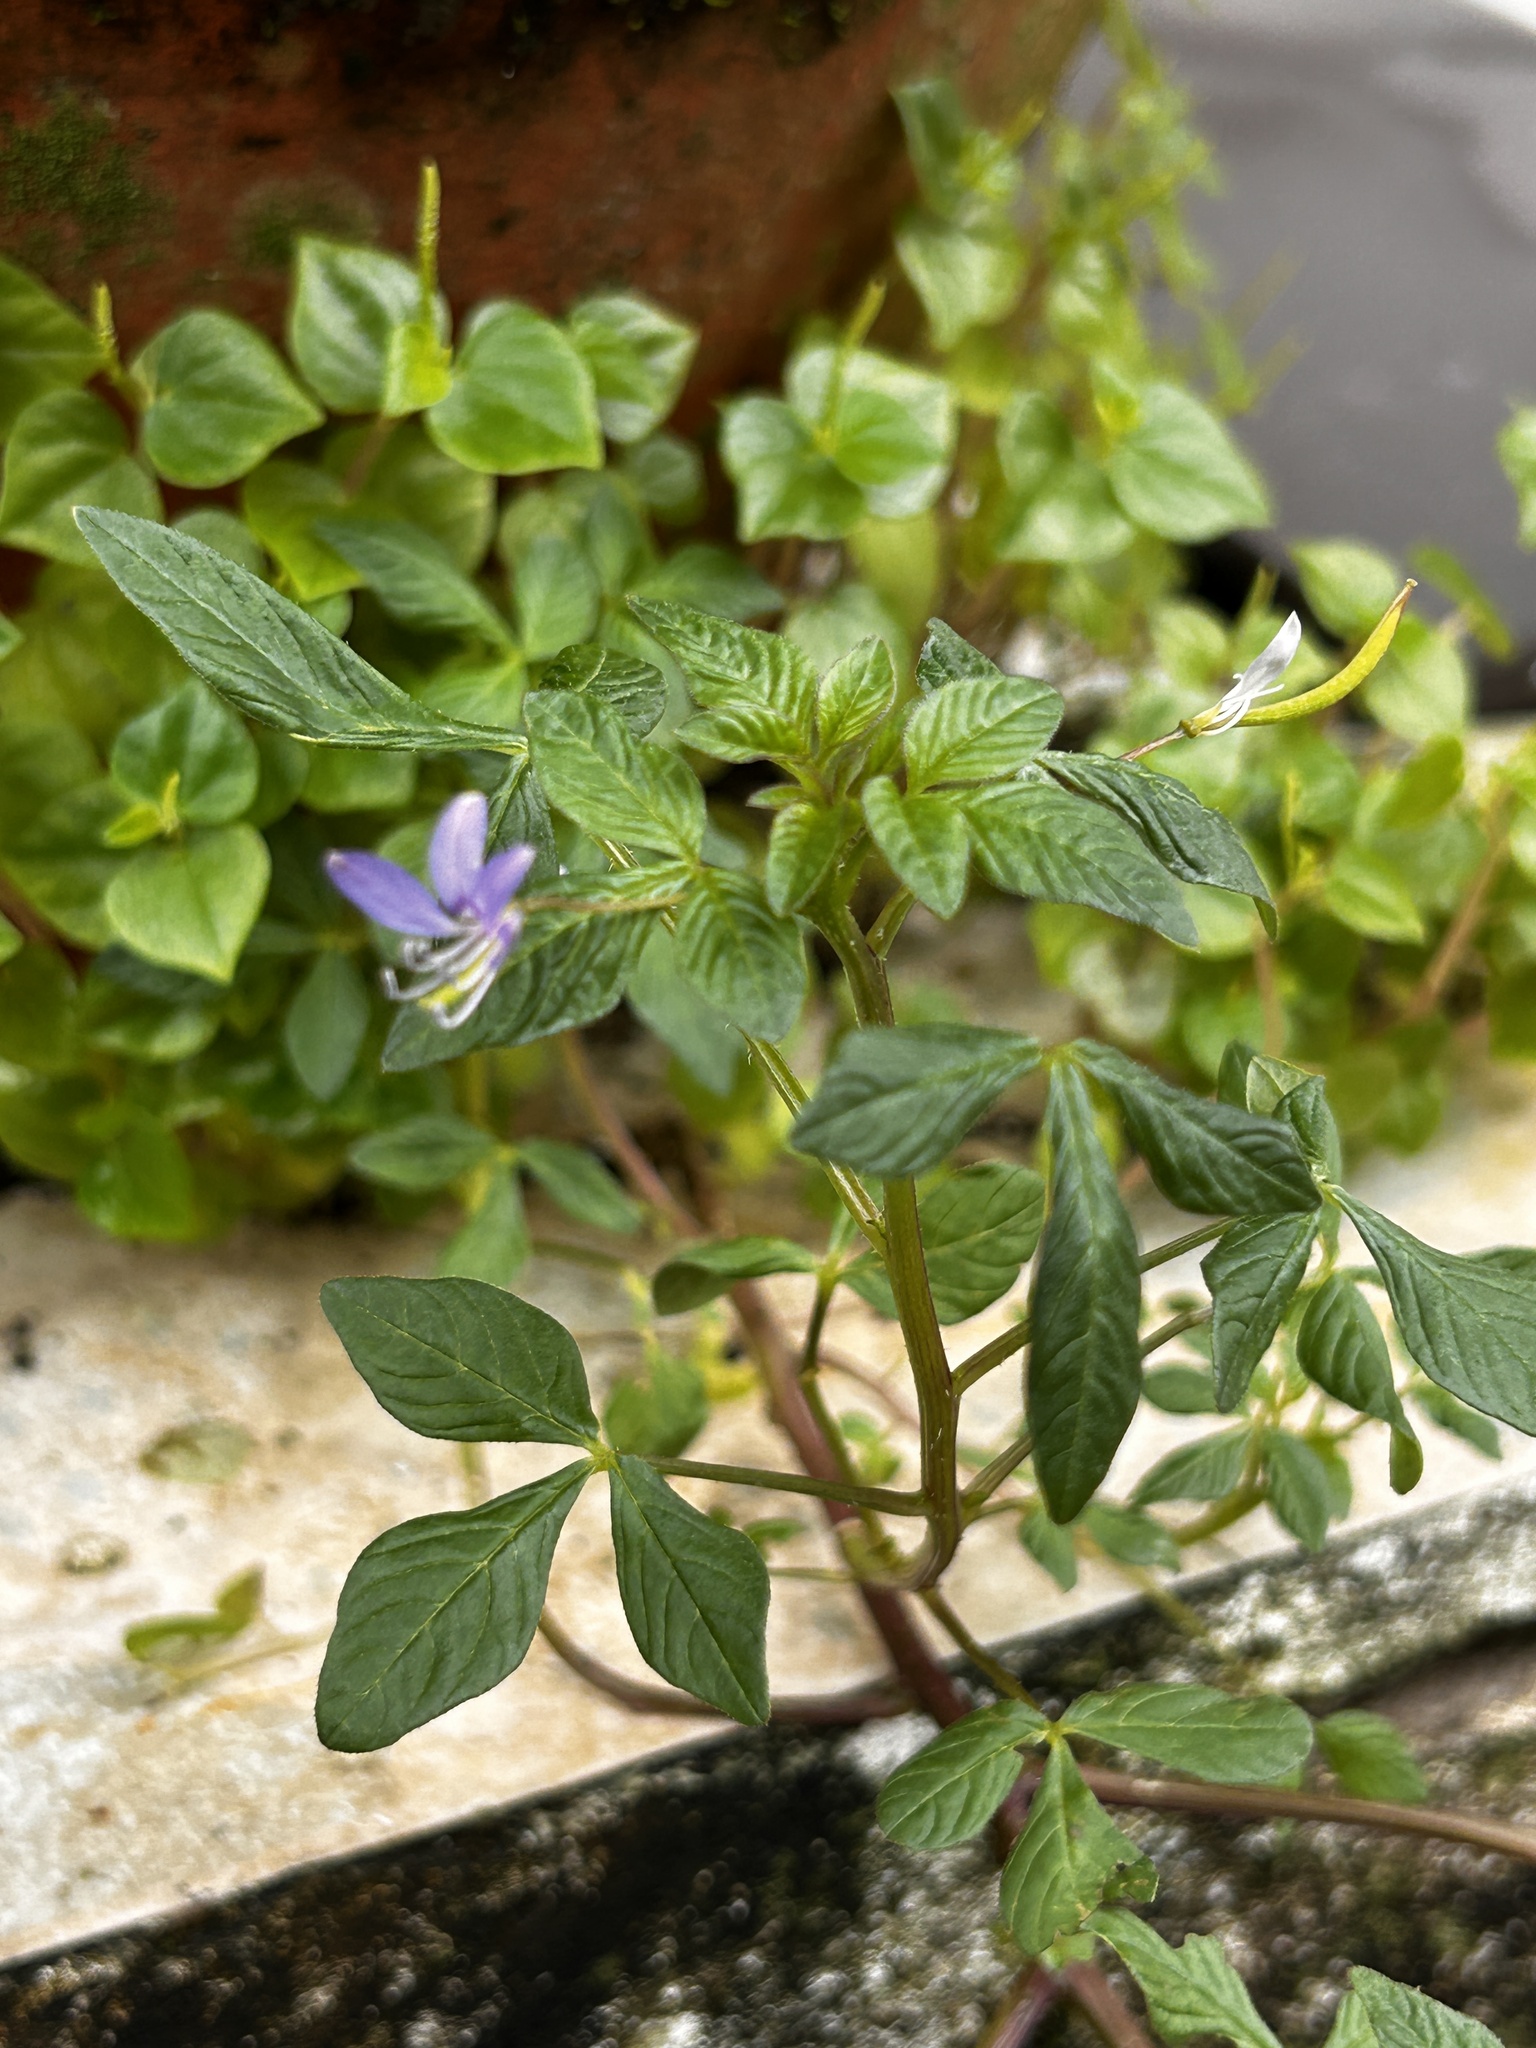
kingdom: Plantae
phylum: Tracheophyta
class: Magnoliopsida
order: Brassicales
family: Cleomaceae
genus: Sieruela
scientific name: Sieruela rutidosperma
